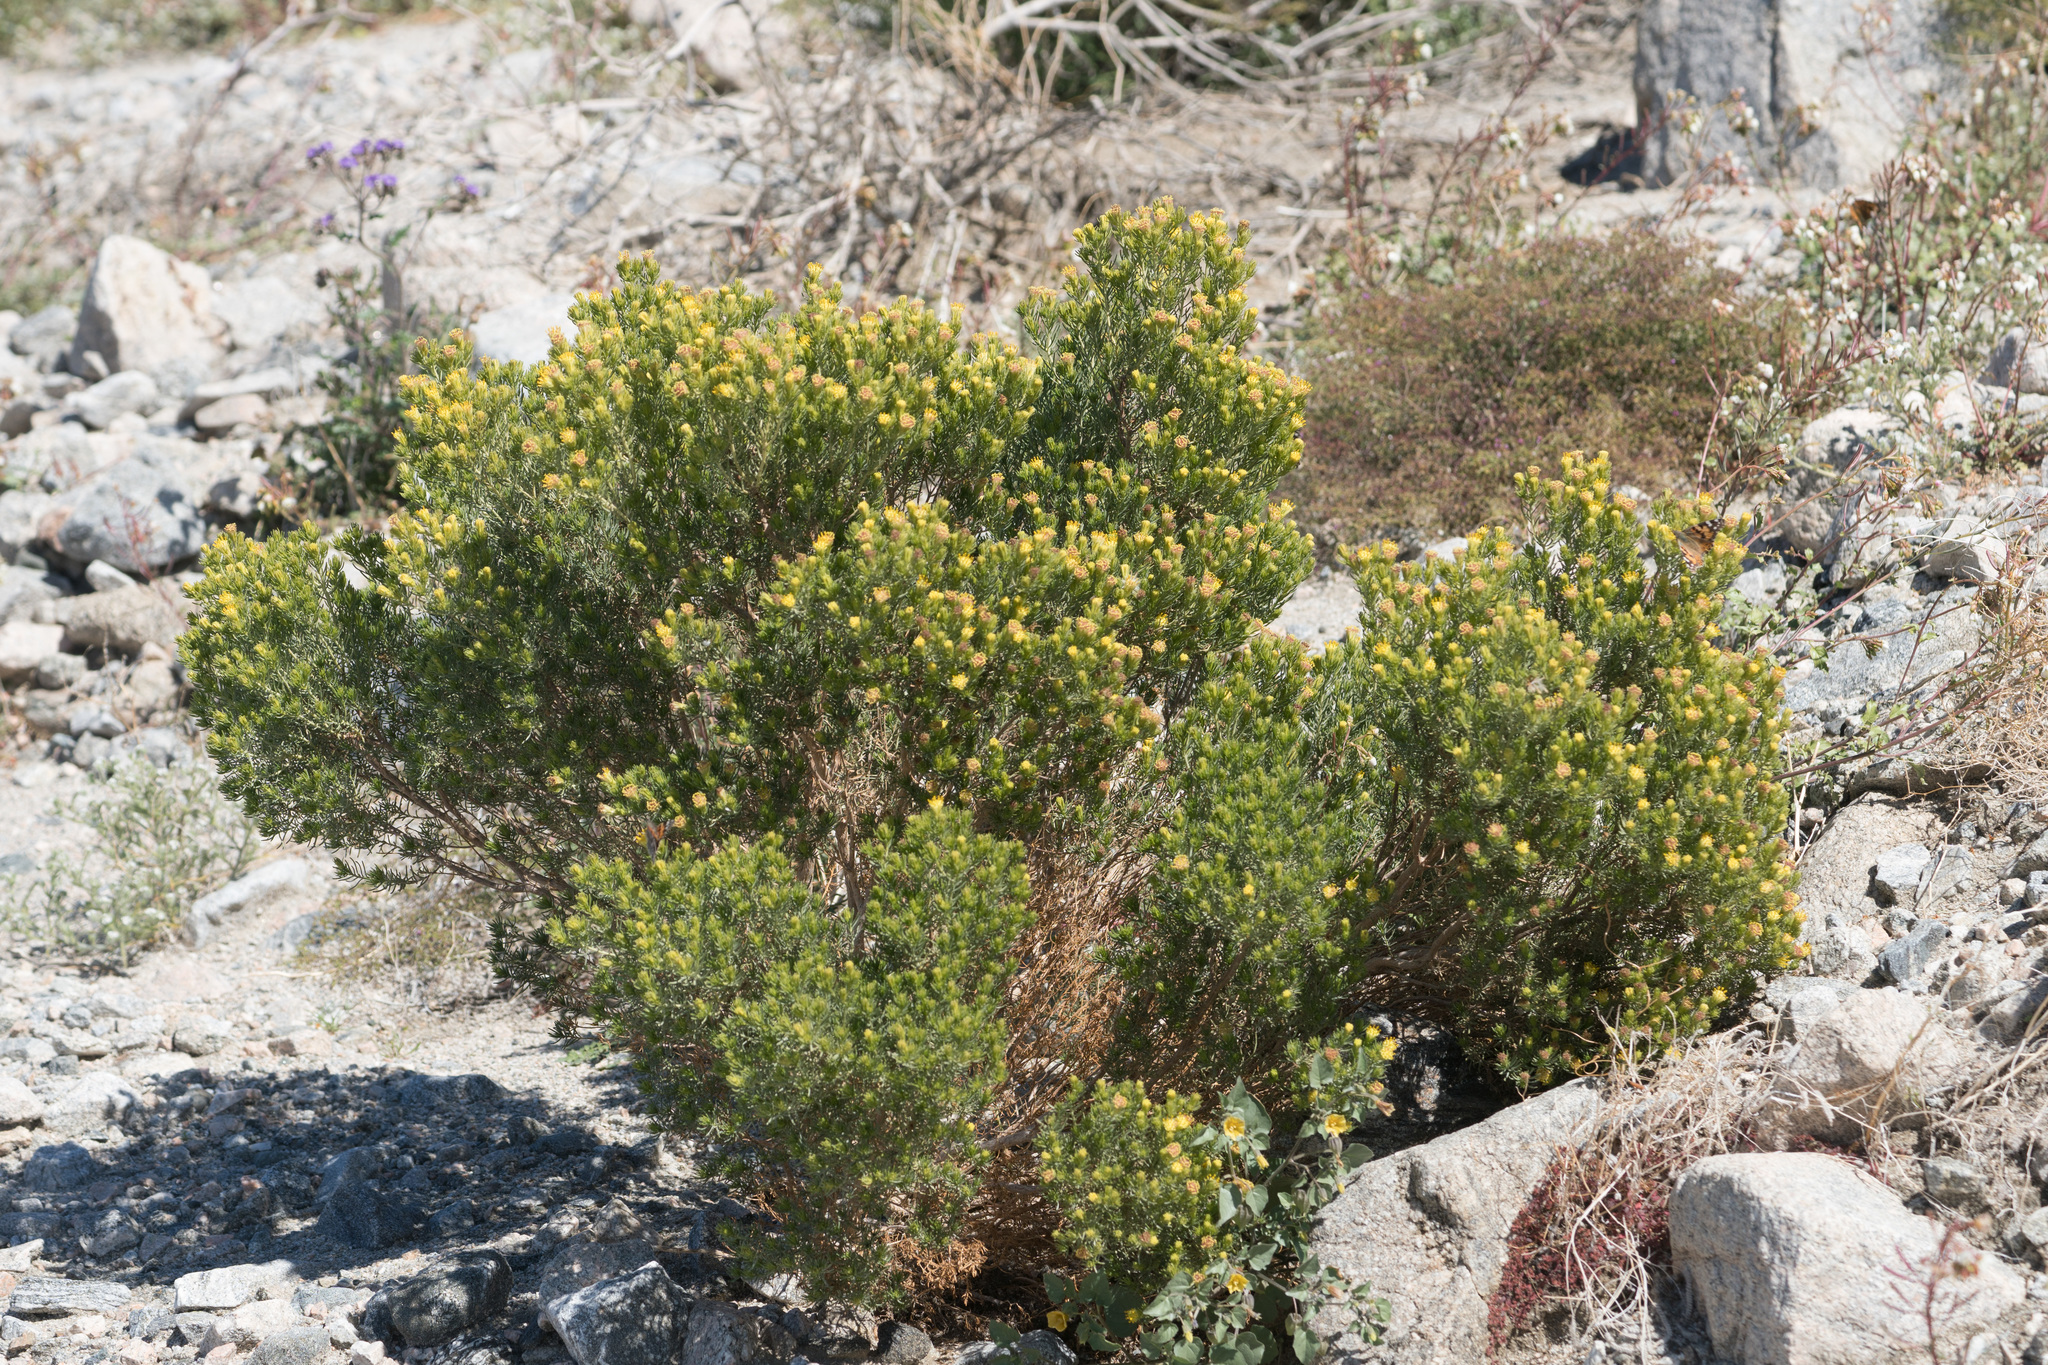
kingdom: Plantae
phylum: Tracheophyta
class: Magnoliopsida
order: Asterales
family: Asteraceae
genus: Peucephyllum
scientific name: Peucephyllum schottii
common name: Pygmy-cedar
